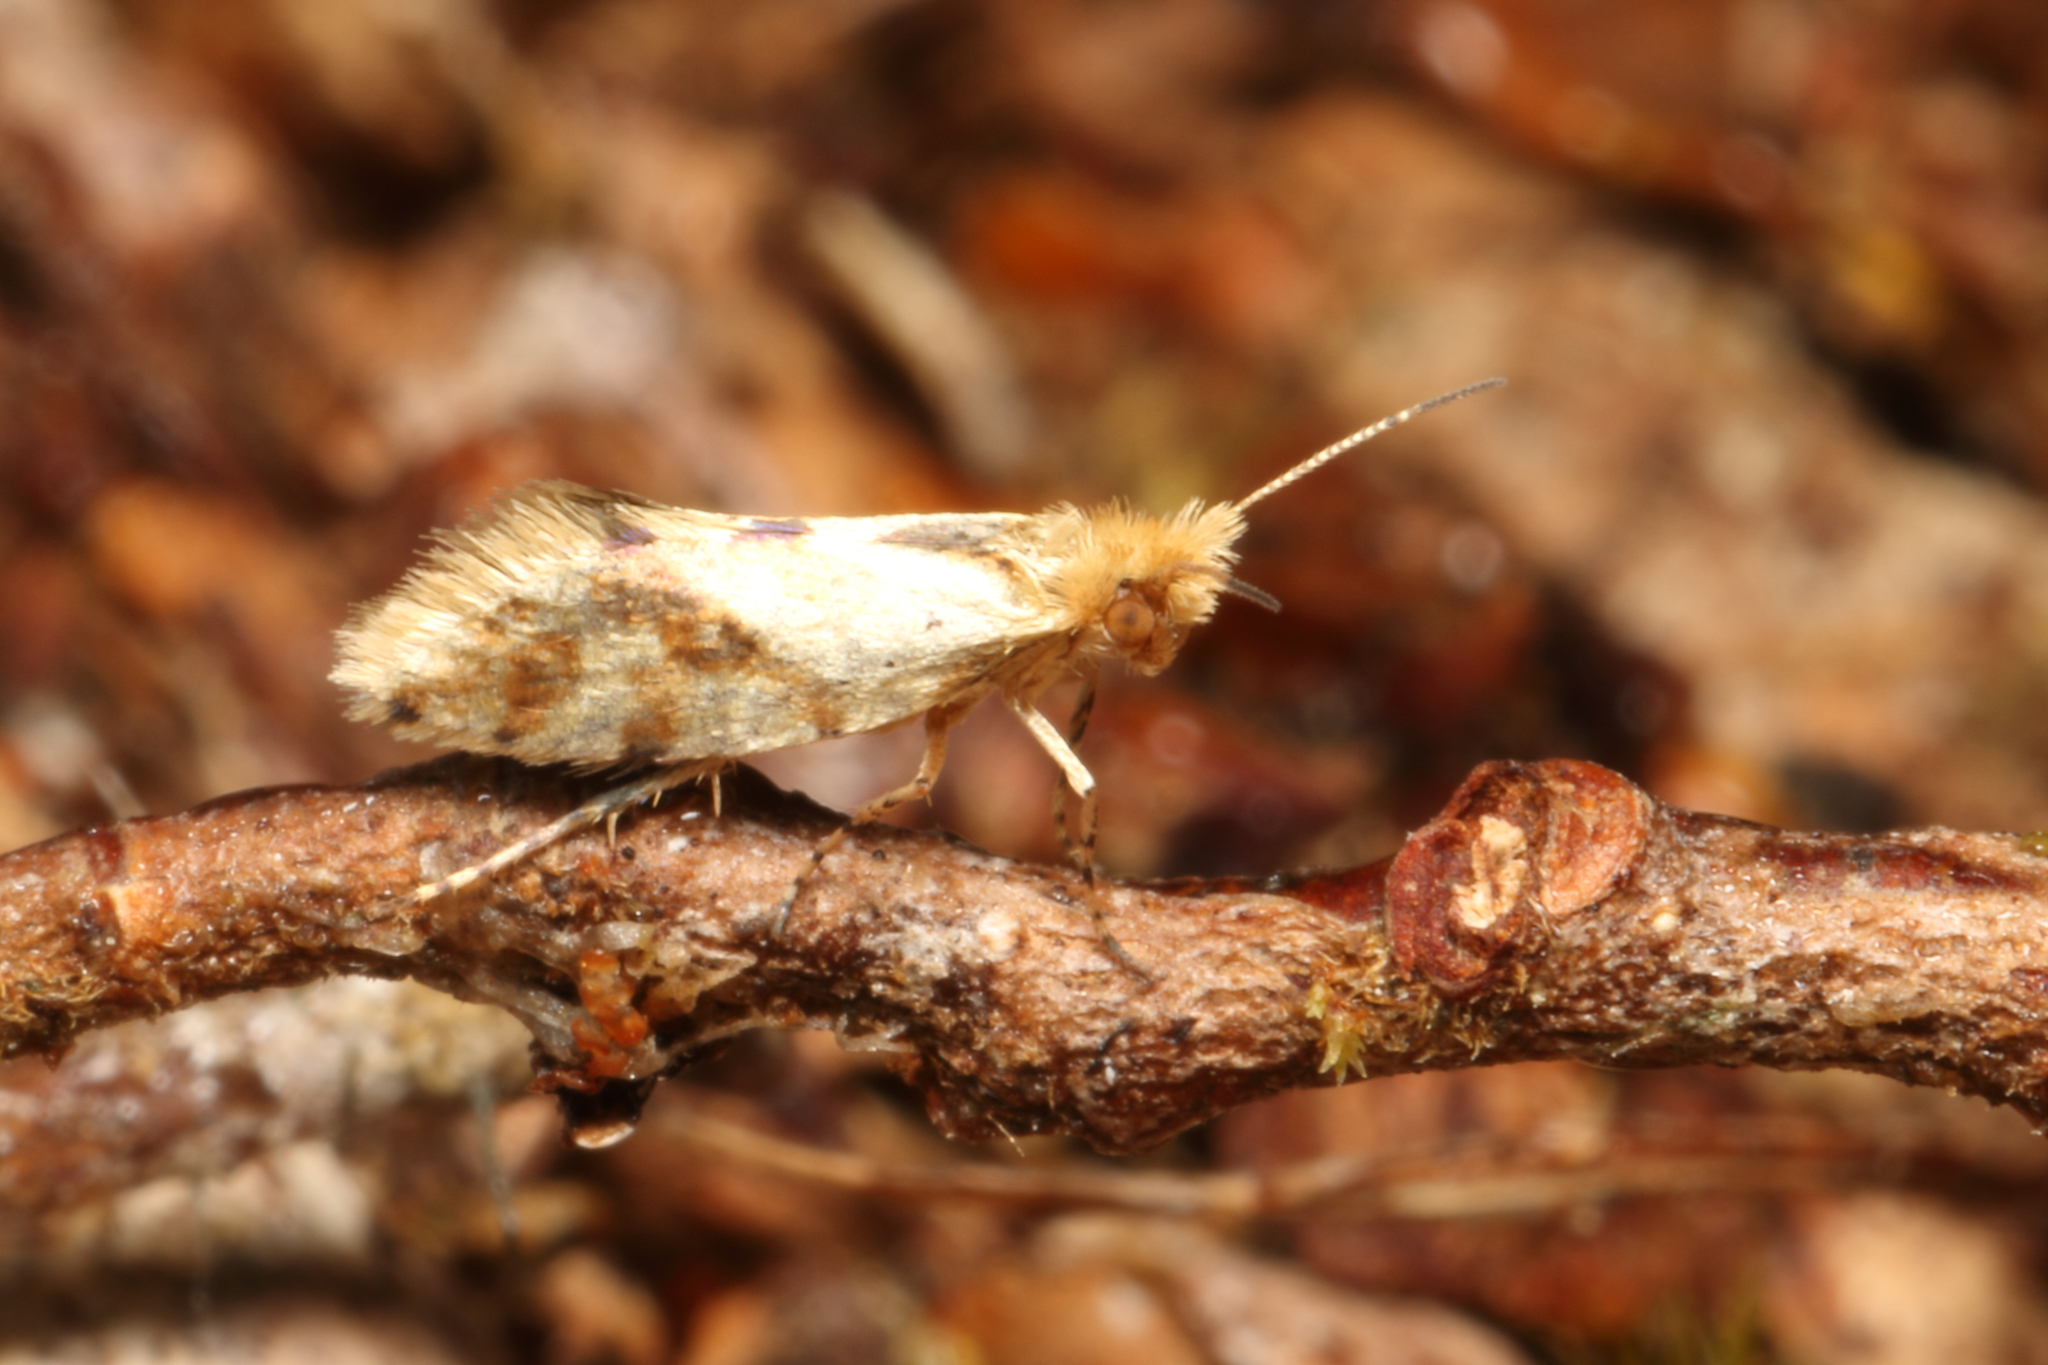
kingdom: Animalia
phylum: Arthropoda
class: Insecta
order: Lepidoptera
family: Micropterigidae
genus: Sabatinca
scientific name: Sabatinca chalcophanes
